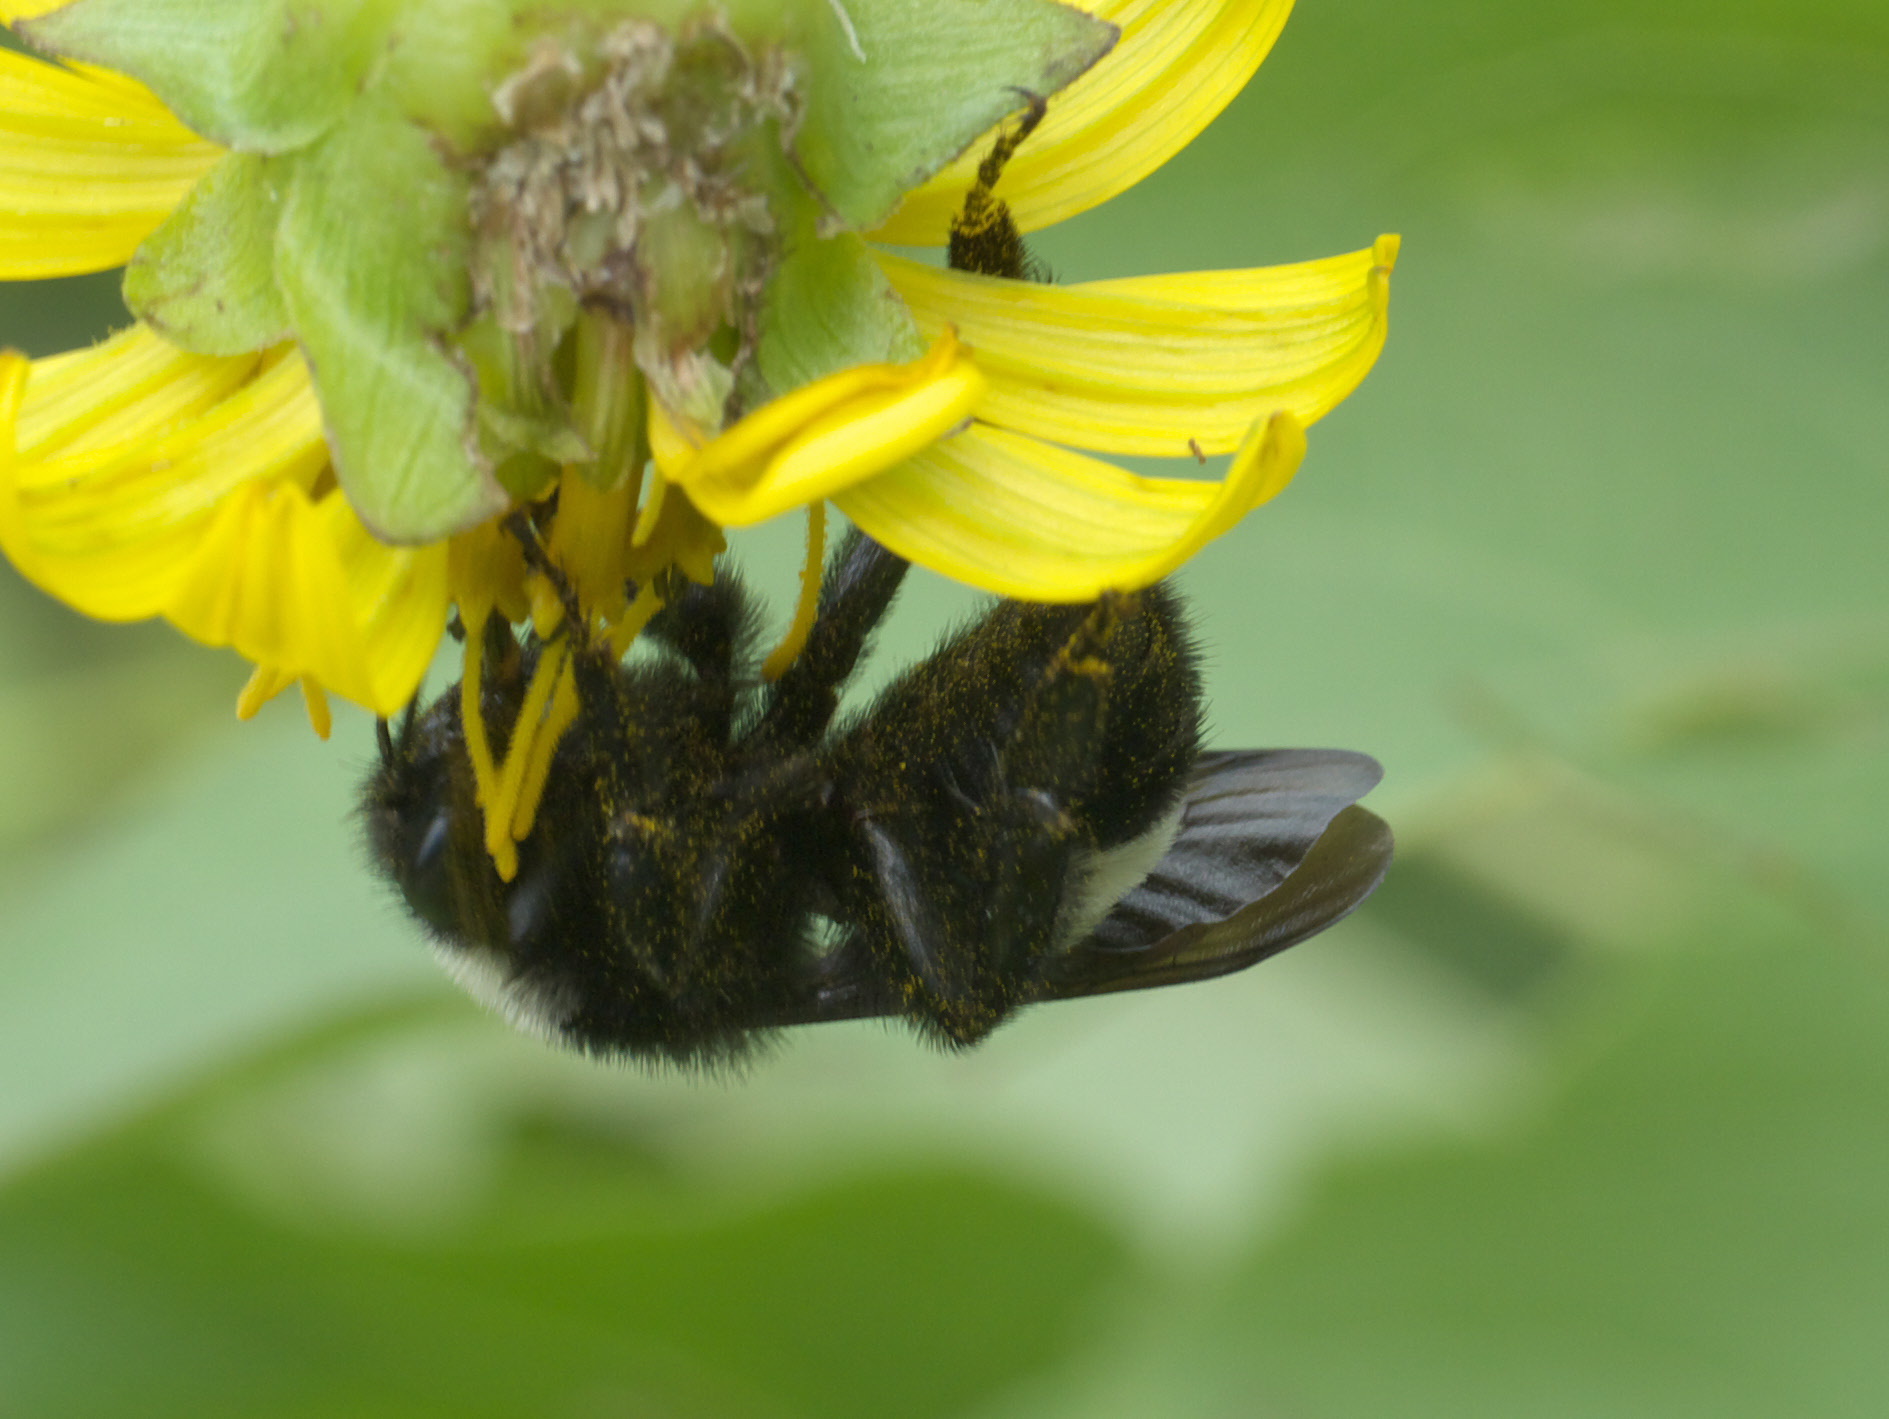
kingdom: Animalia
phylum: Arthropoda
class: Insecta
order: Hymenoptera
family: Apidae
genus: Bombus
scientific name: Bombus pensylvanicus
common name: Bumble bee
